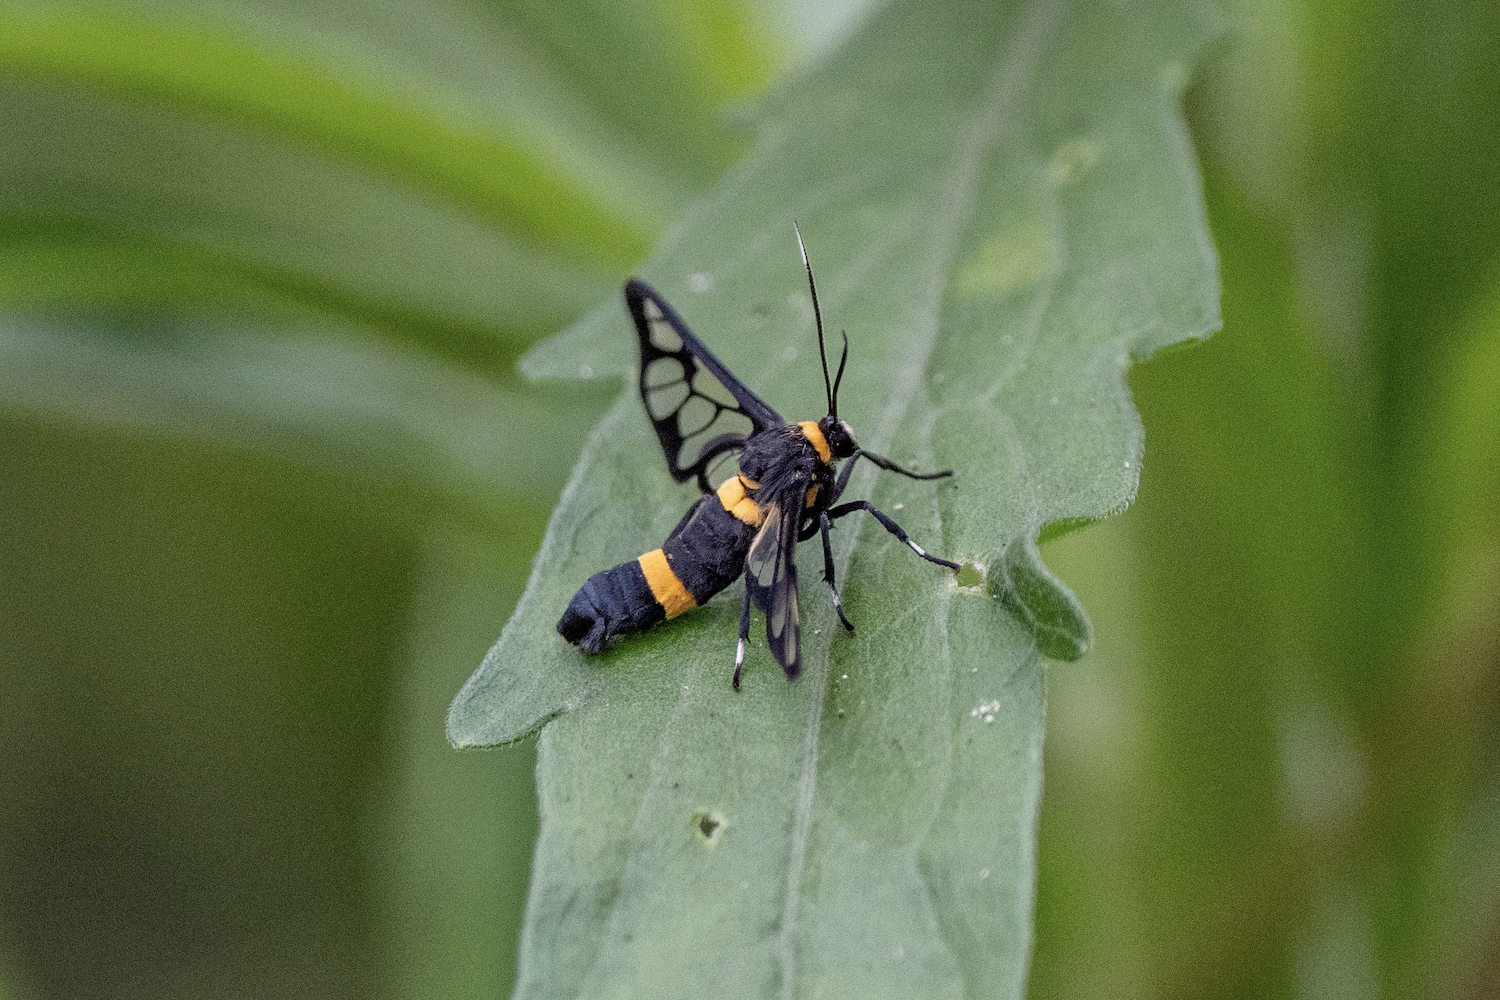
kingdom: Animalia
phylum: Arthropoda
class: Insecta
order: Lepidoptera
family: Erebidae
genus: Syntomoides
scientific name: Syntomoides imaon
